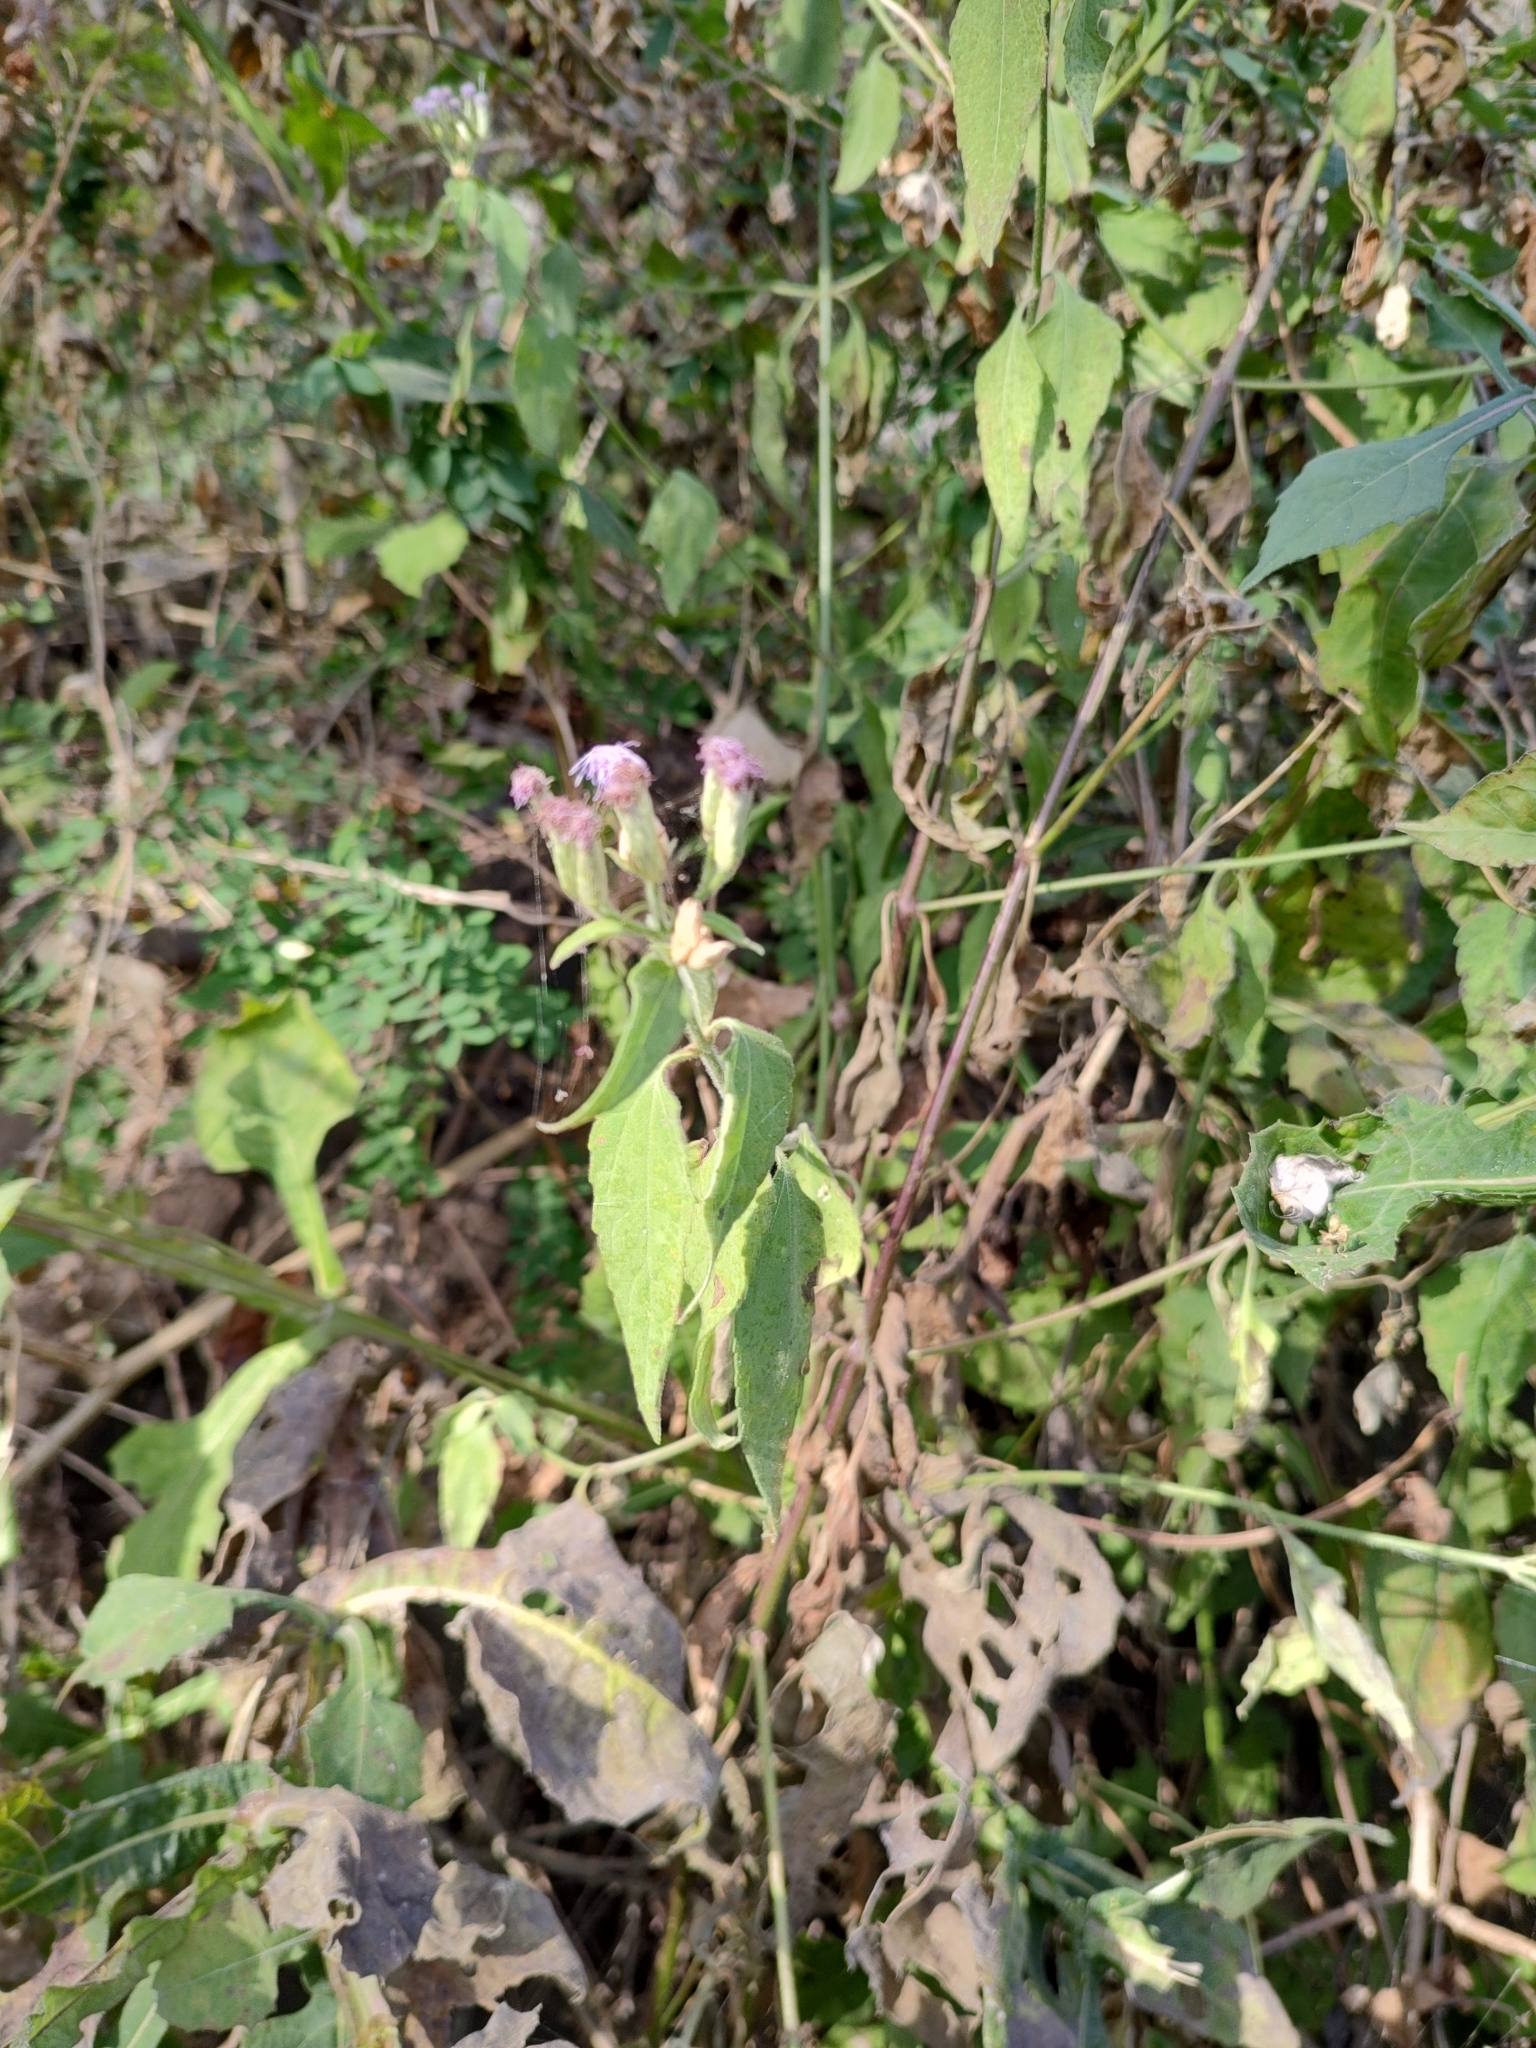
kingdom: Plantae
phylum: Tracheophyta
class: Magnoliopsida
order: Asterales
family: Asteraceae
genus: Chromolaena
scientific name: Chromolaena odorata
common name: Siamweed
